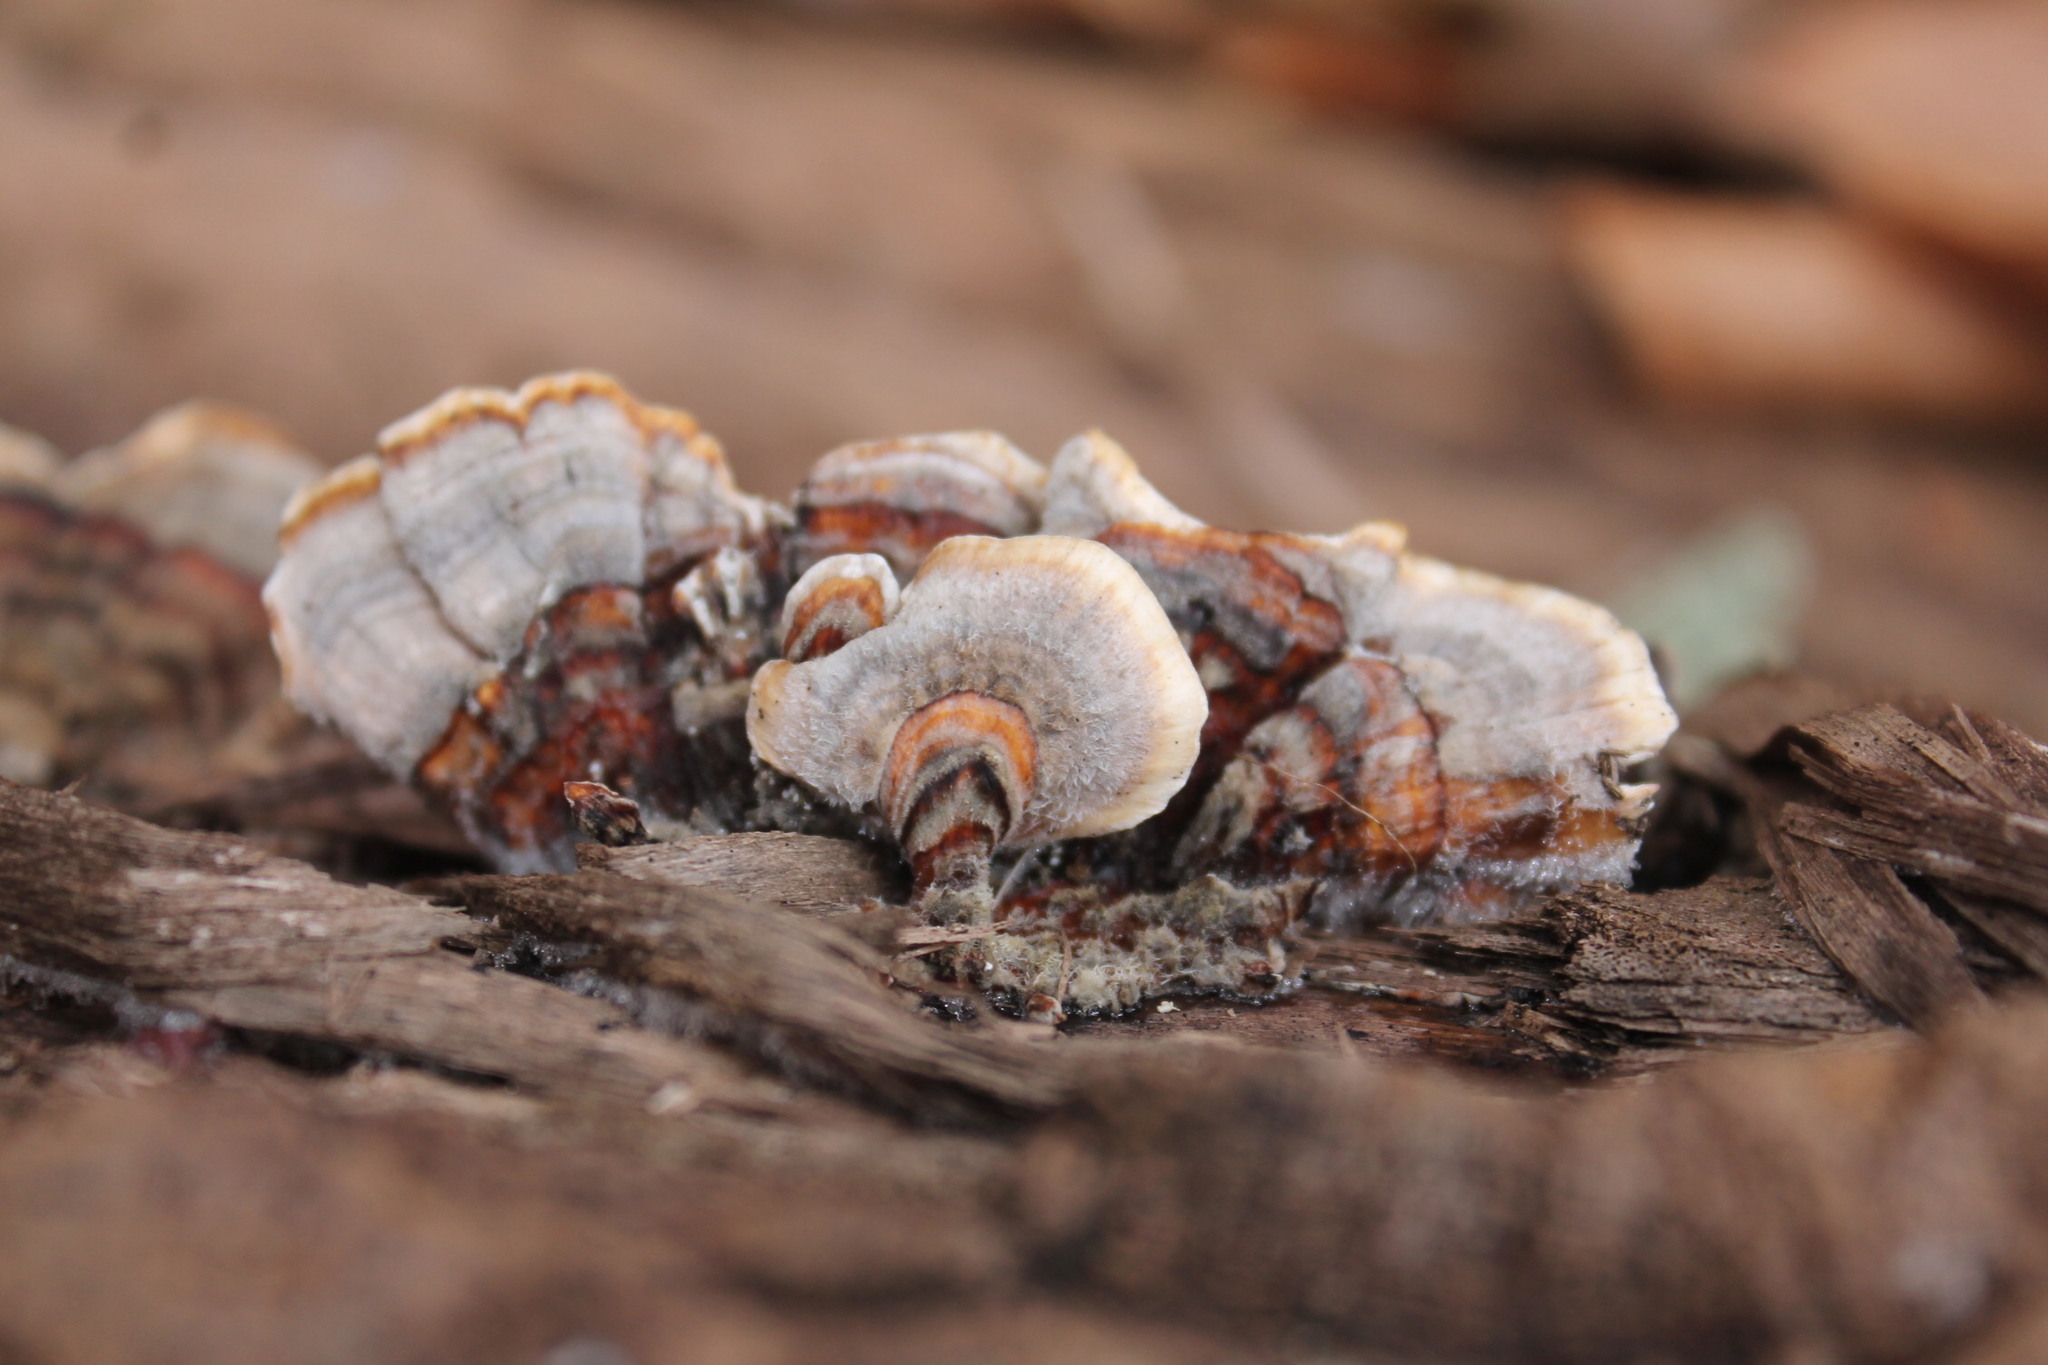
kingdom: Fungi
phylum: Basidiomycota
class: Agaricomycetes
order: Polyporales
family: Polyporaceae
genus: Trametes
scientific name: Trametes versicolor
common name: Turkeytail
